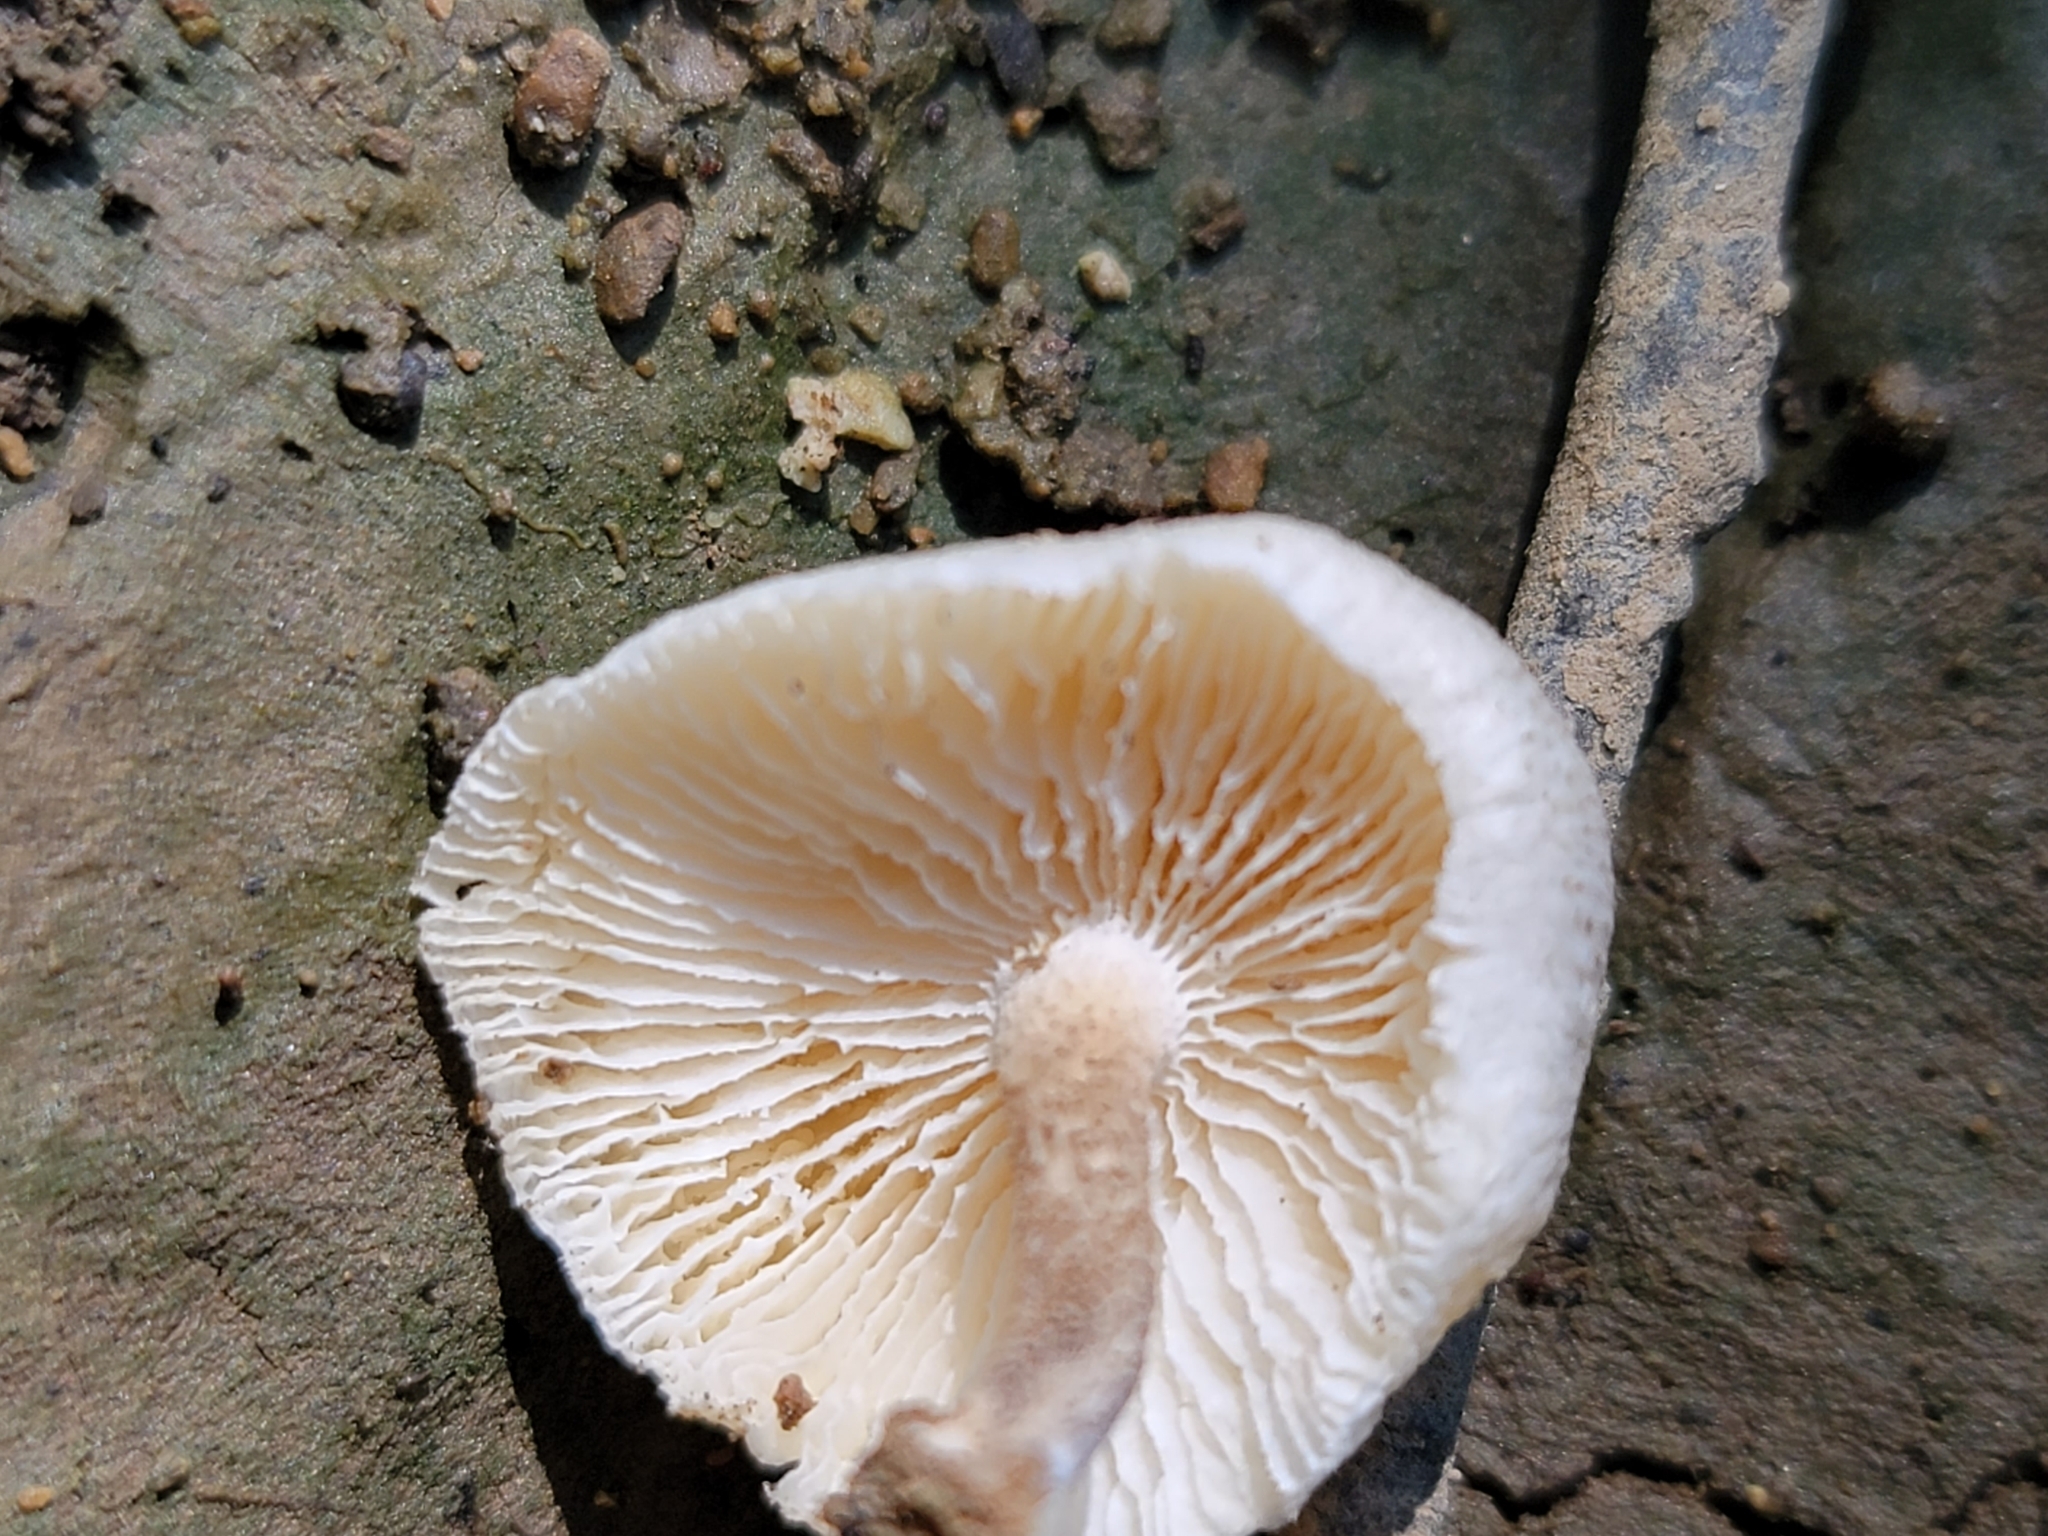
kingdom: Fungi
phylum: Basidiomycota
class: Agaricomycetes
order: Polyporales
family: Polyporaceae
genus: Lentinus
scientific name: Lentinus tigrinus
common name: Tiger sawgill
